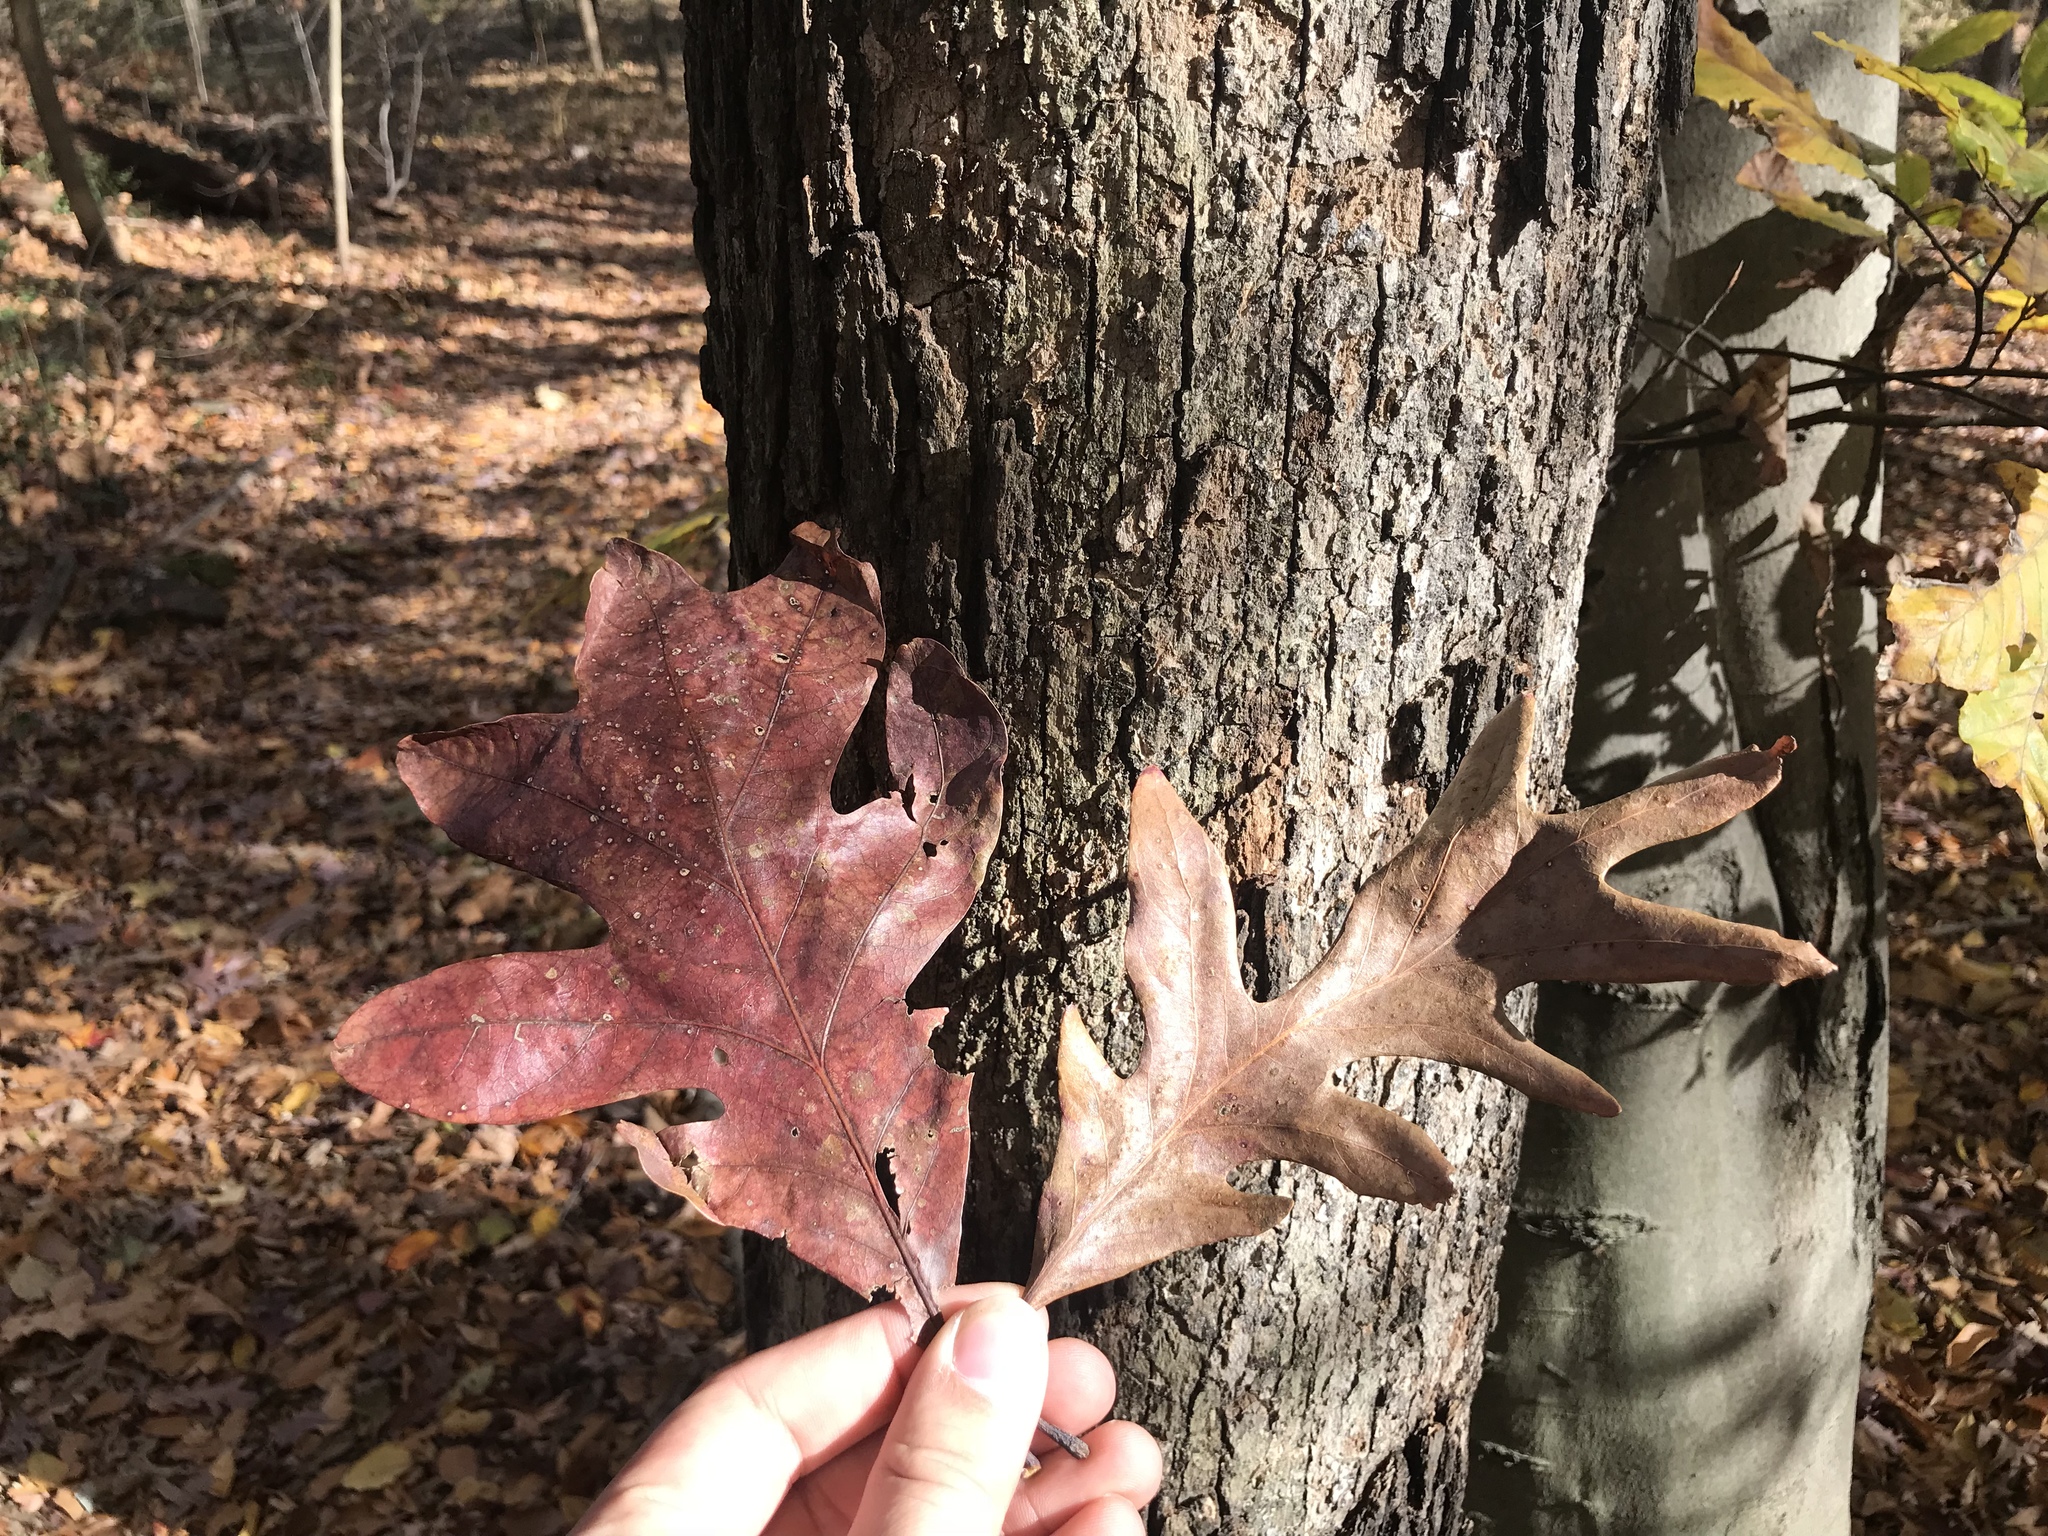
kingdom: Plantae
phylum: Tracheophyta
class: Magnoliopsida
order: Fagales
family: Fagaceae
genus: Quercus
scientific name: Quercus alba
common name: White oak
